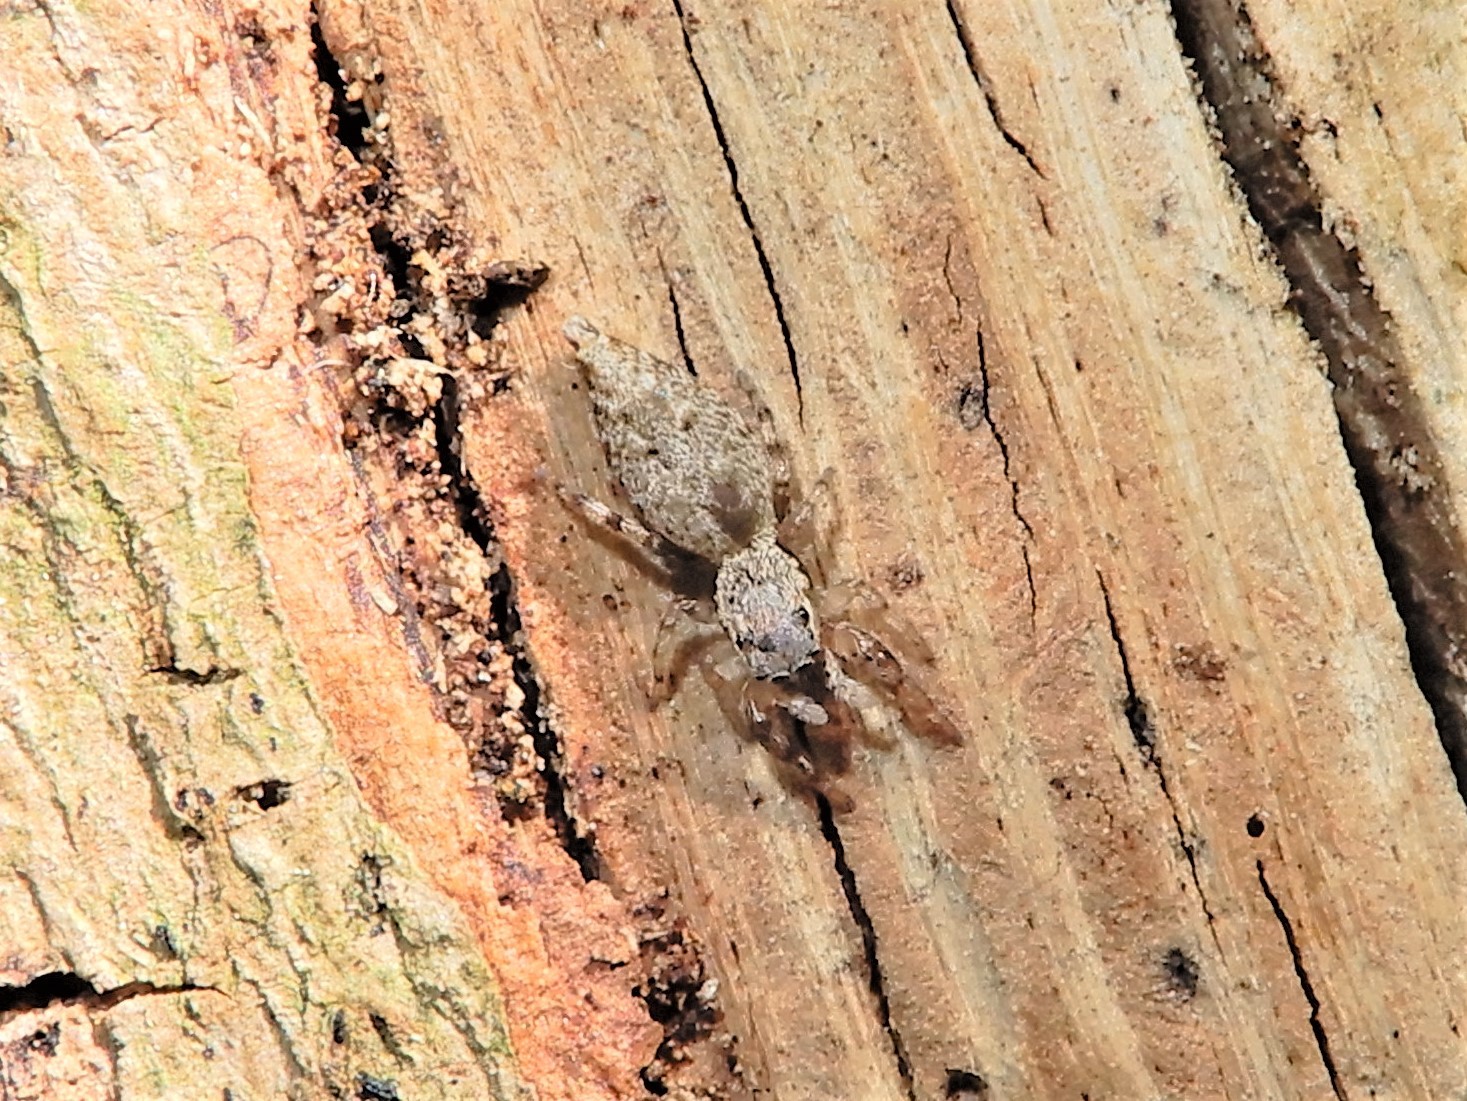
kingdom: Animalia
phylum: Arthropoda
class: Arachnida
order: Araneae
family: Salticidae
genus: Helpis
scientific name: Helpis minitabunda
